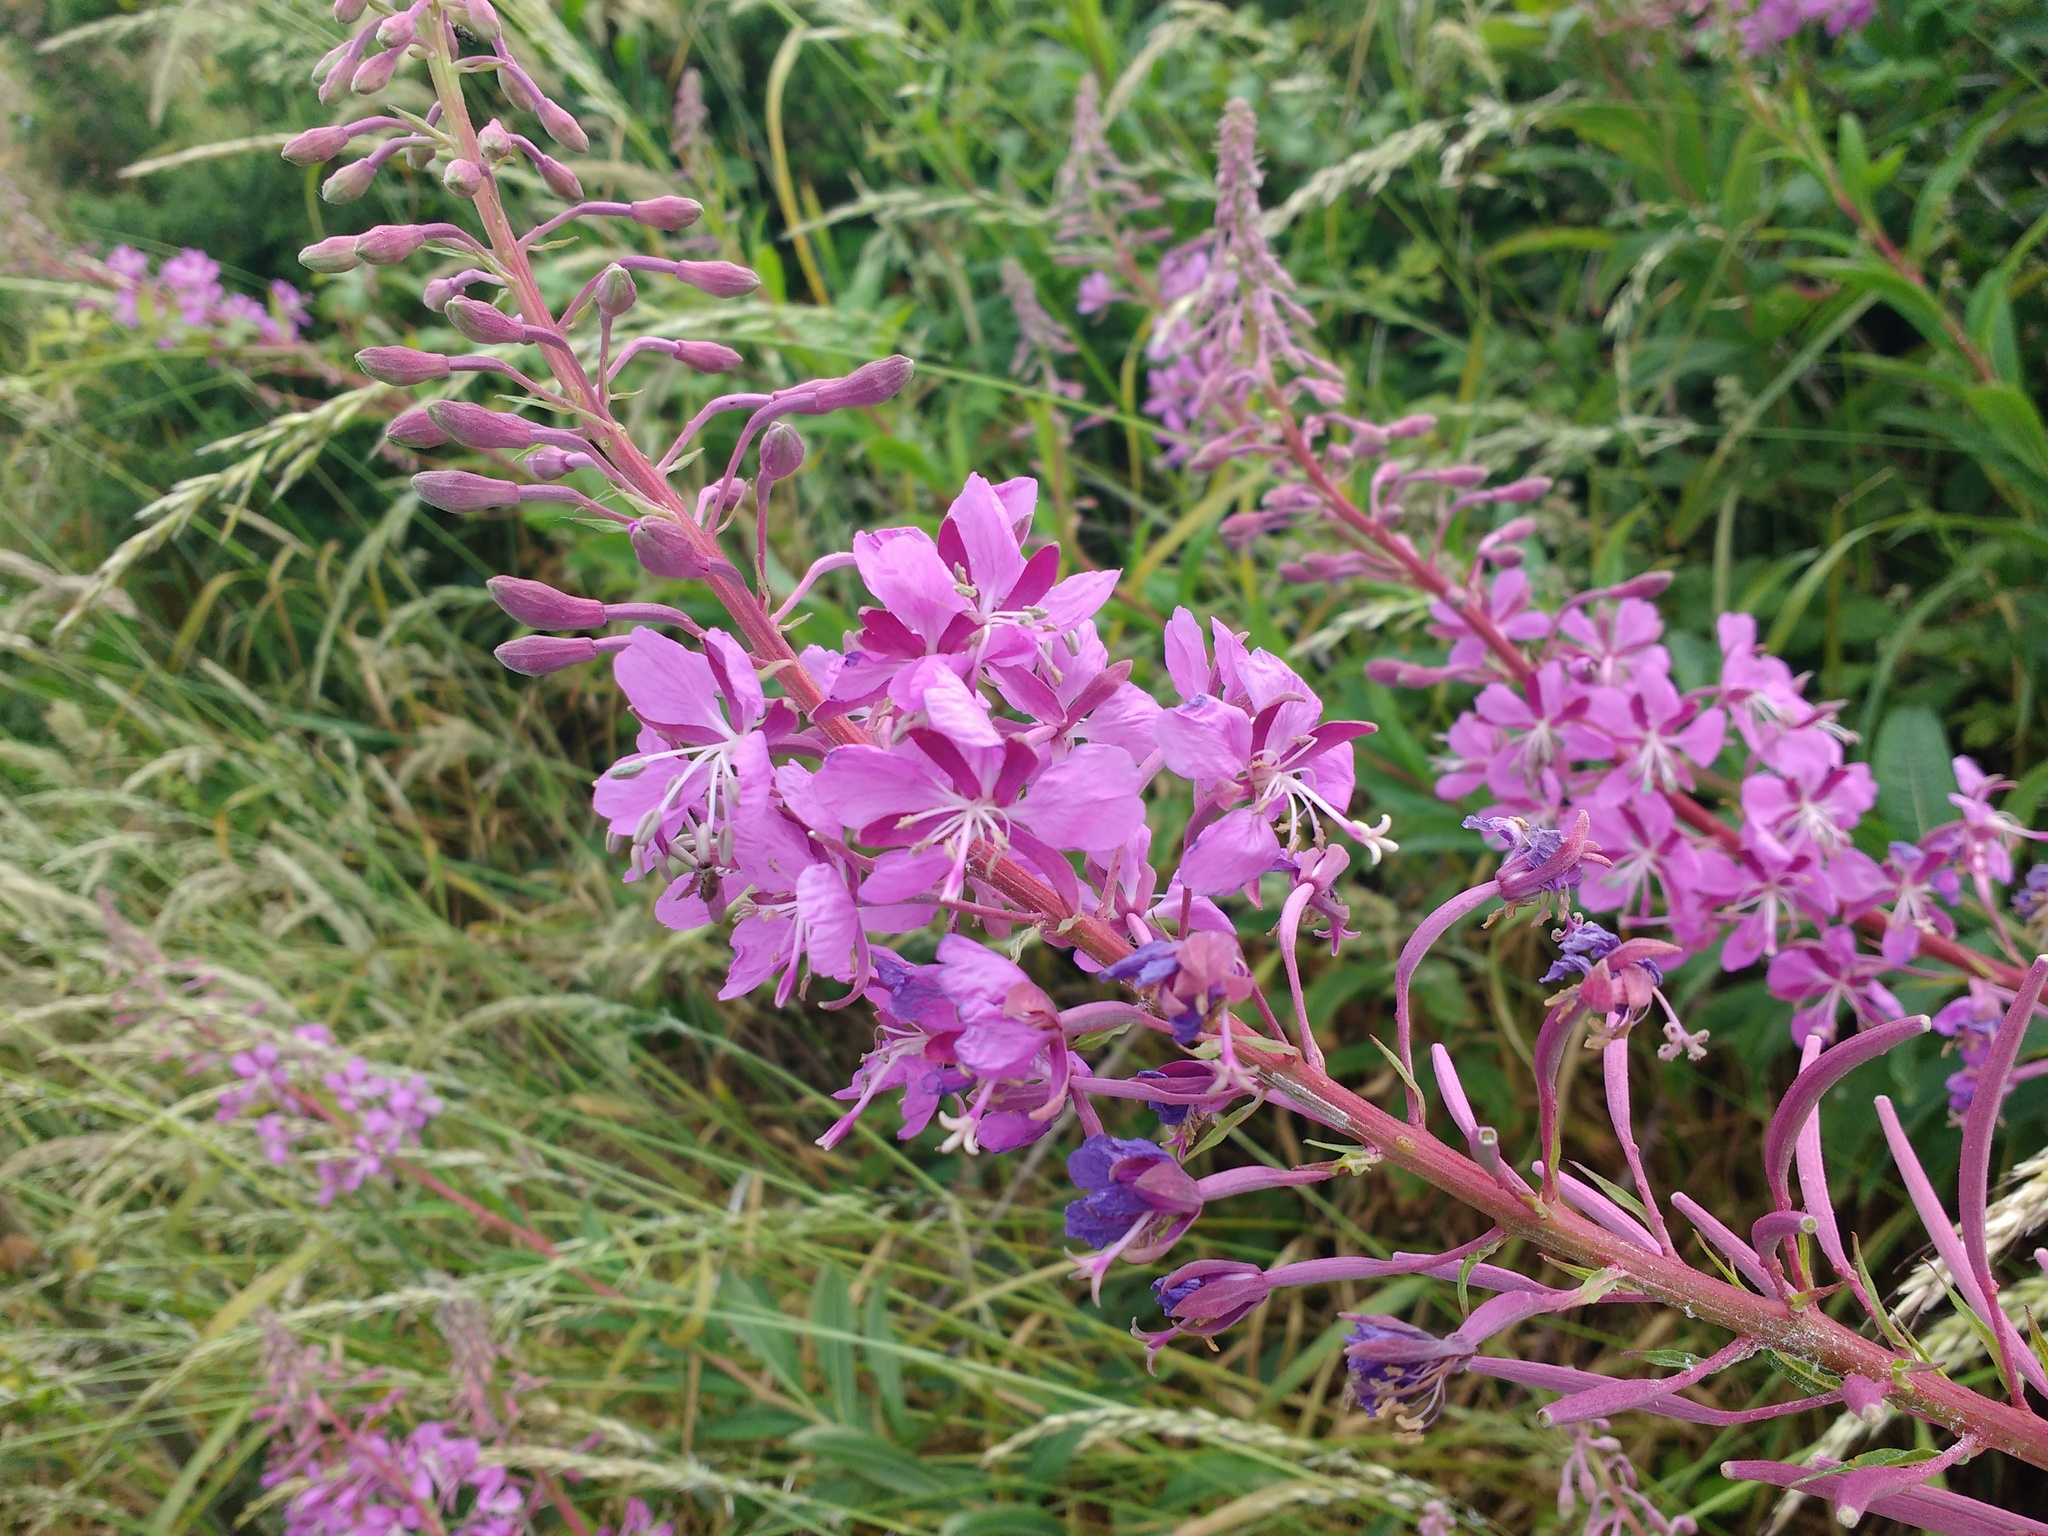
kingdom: Plantae
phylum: Tracheophyta
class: Magnoliopsida
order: Myrtales
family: Onagraceae
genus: Chamaenerion
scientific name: Chamaenerion angustifolium
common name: Fireweed
